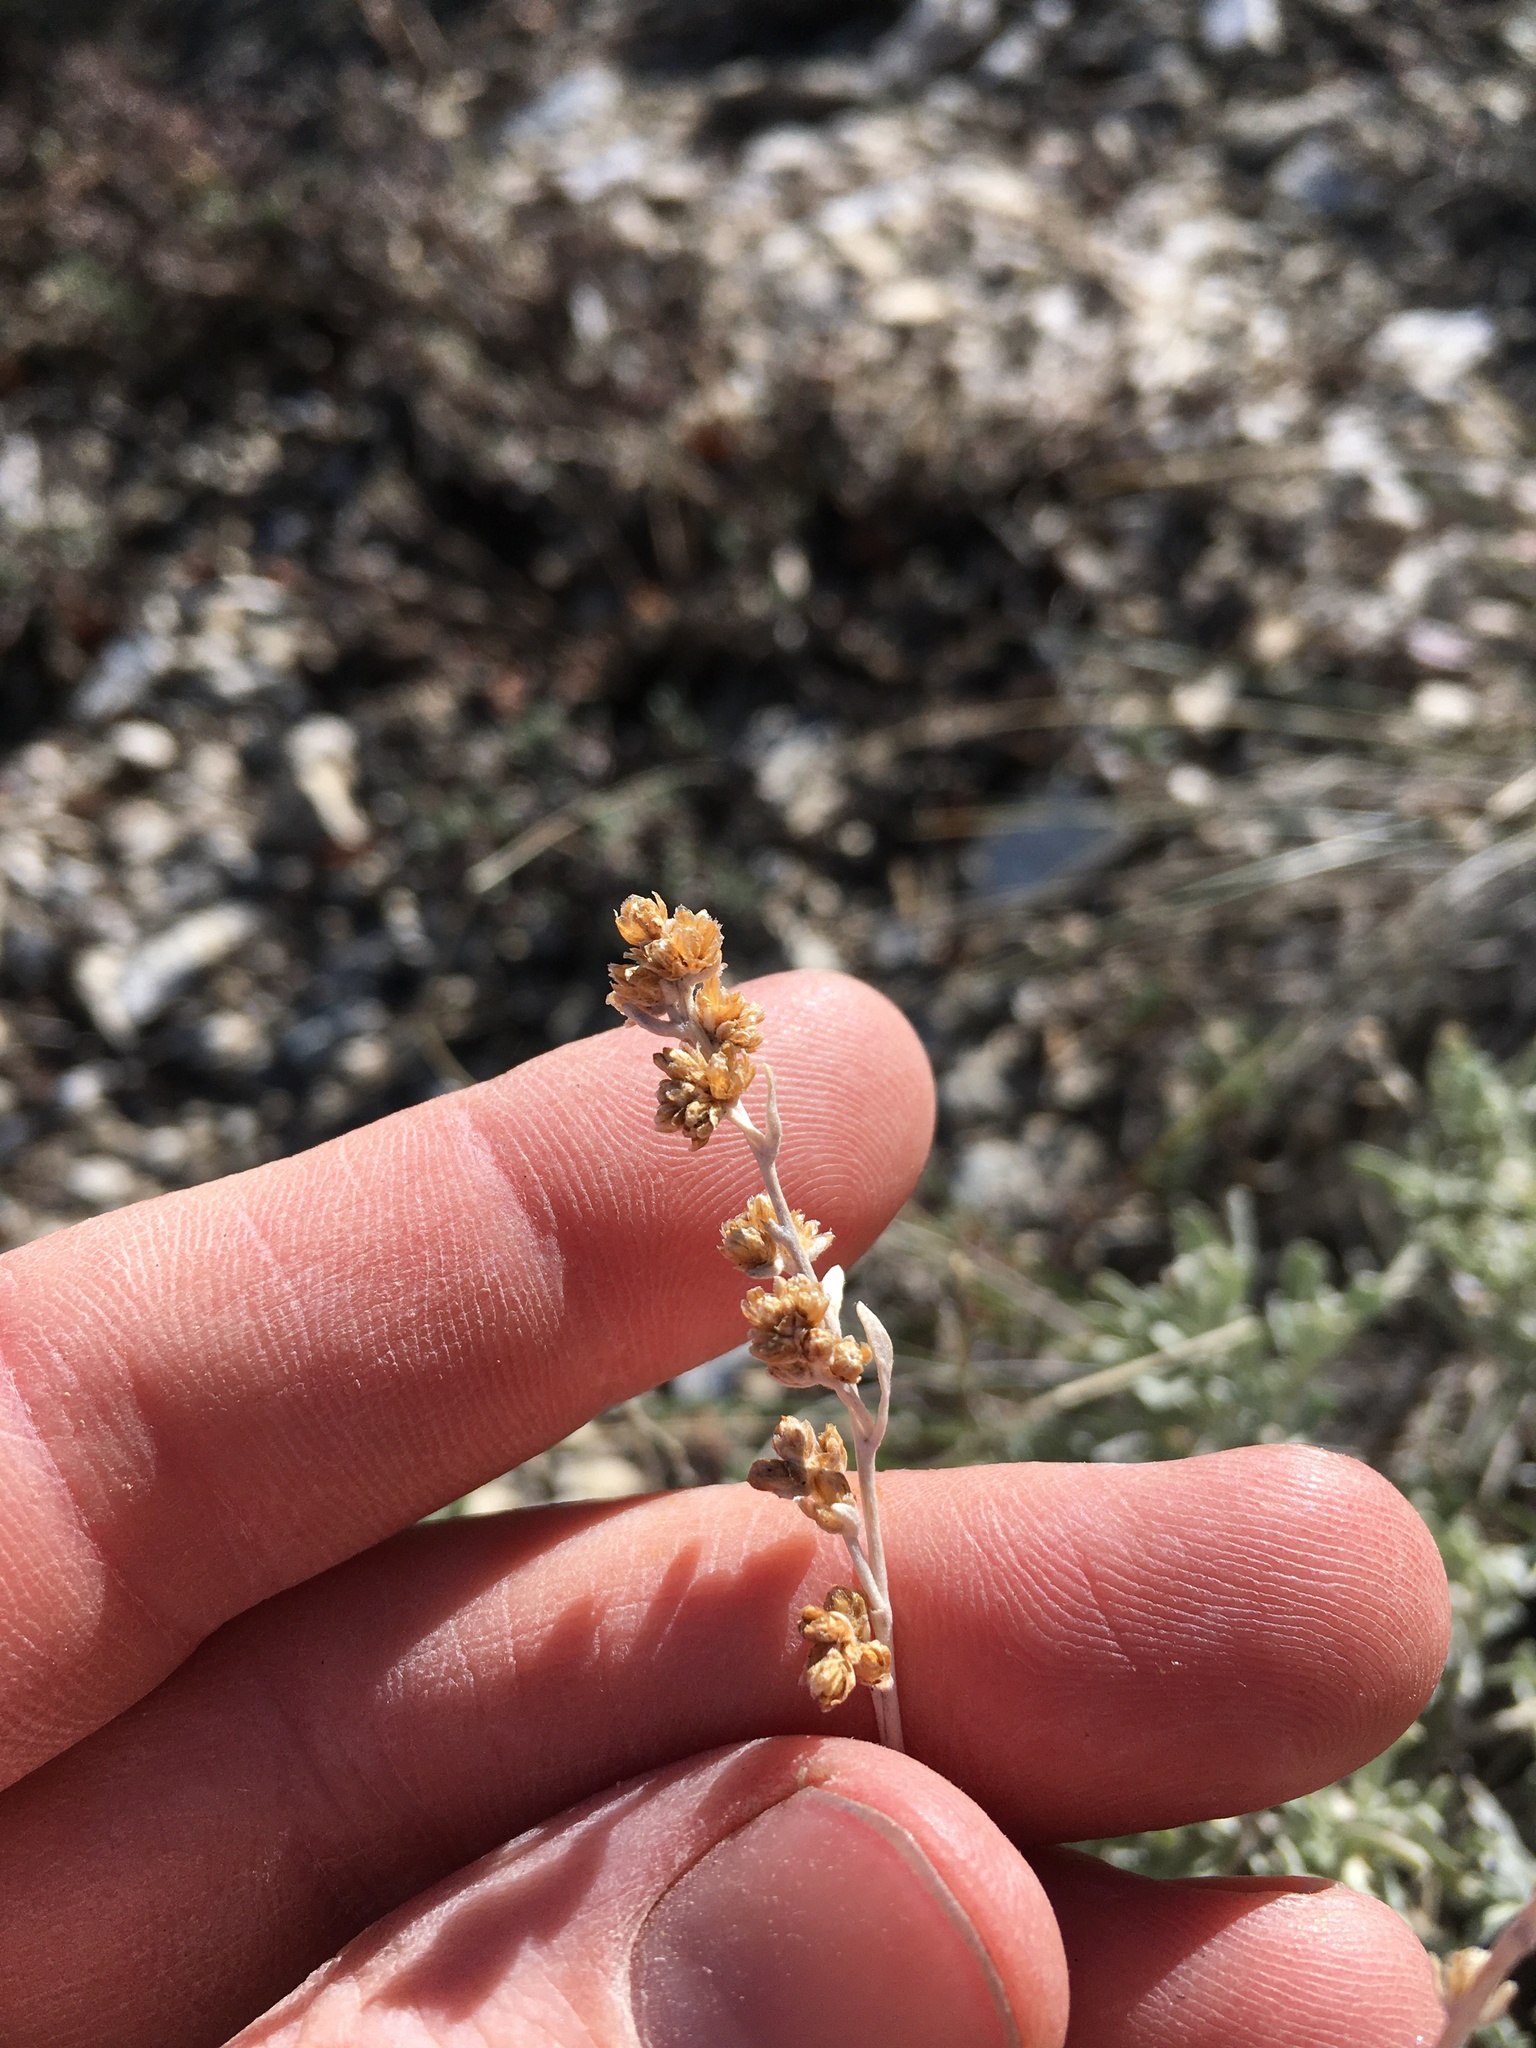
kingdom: Plantae
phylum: Tracheophyta
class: Magnoliopsida
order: Asterales
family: Asteraceae
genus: Artemisia
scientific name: Artemisia tridentata
